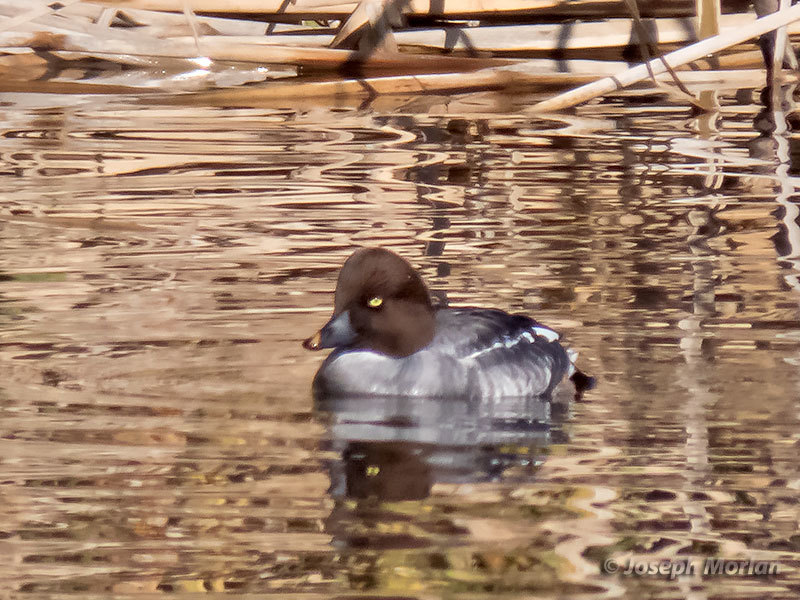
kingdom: Animalia
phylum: Chordata
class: Aves
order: Anseriformes
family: Anatidae
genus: Bucephala
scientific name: Bucephala clangula
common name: Common goldeneye
